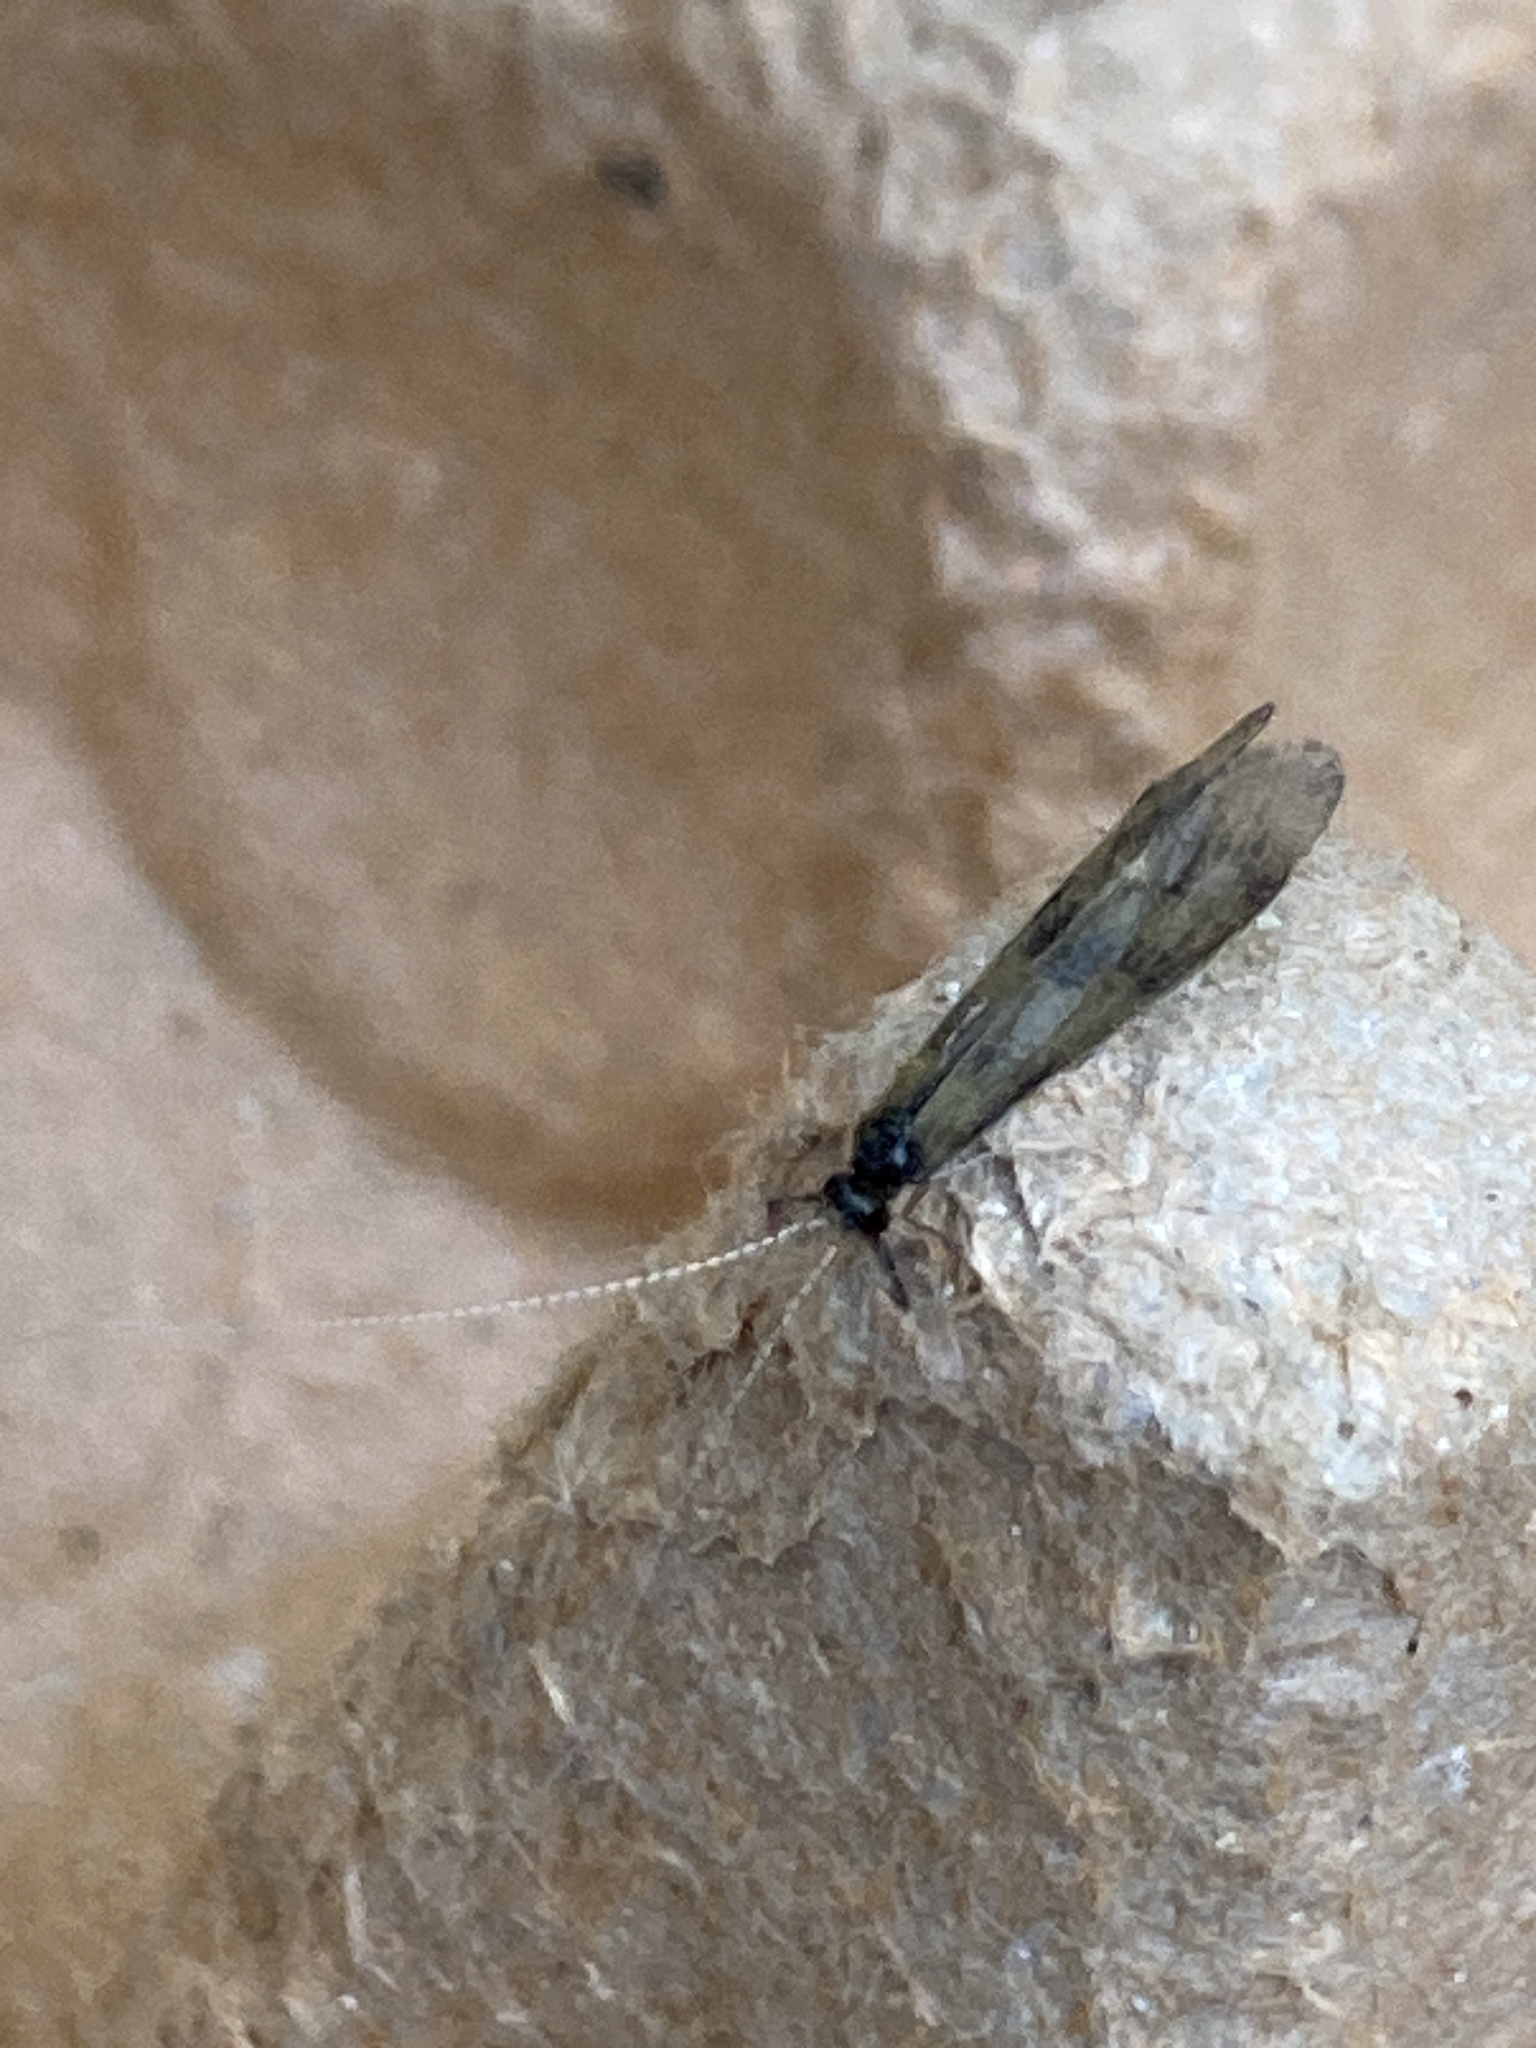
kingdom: Animalia
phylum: Arthropoda
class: Insecta
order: Trichoptera
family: Leptoceridae
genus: Mystacides
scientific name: Mystacides longicornis
